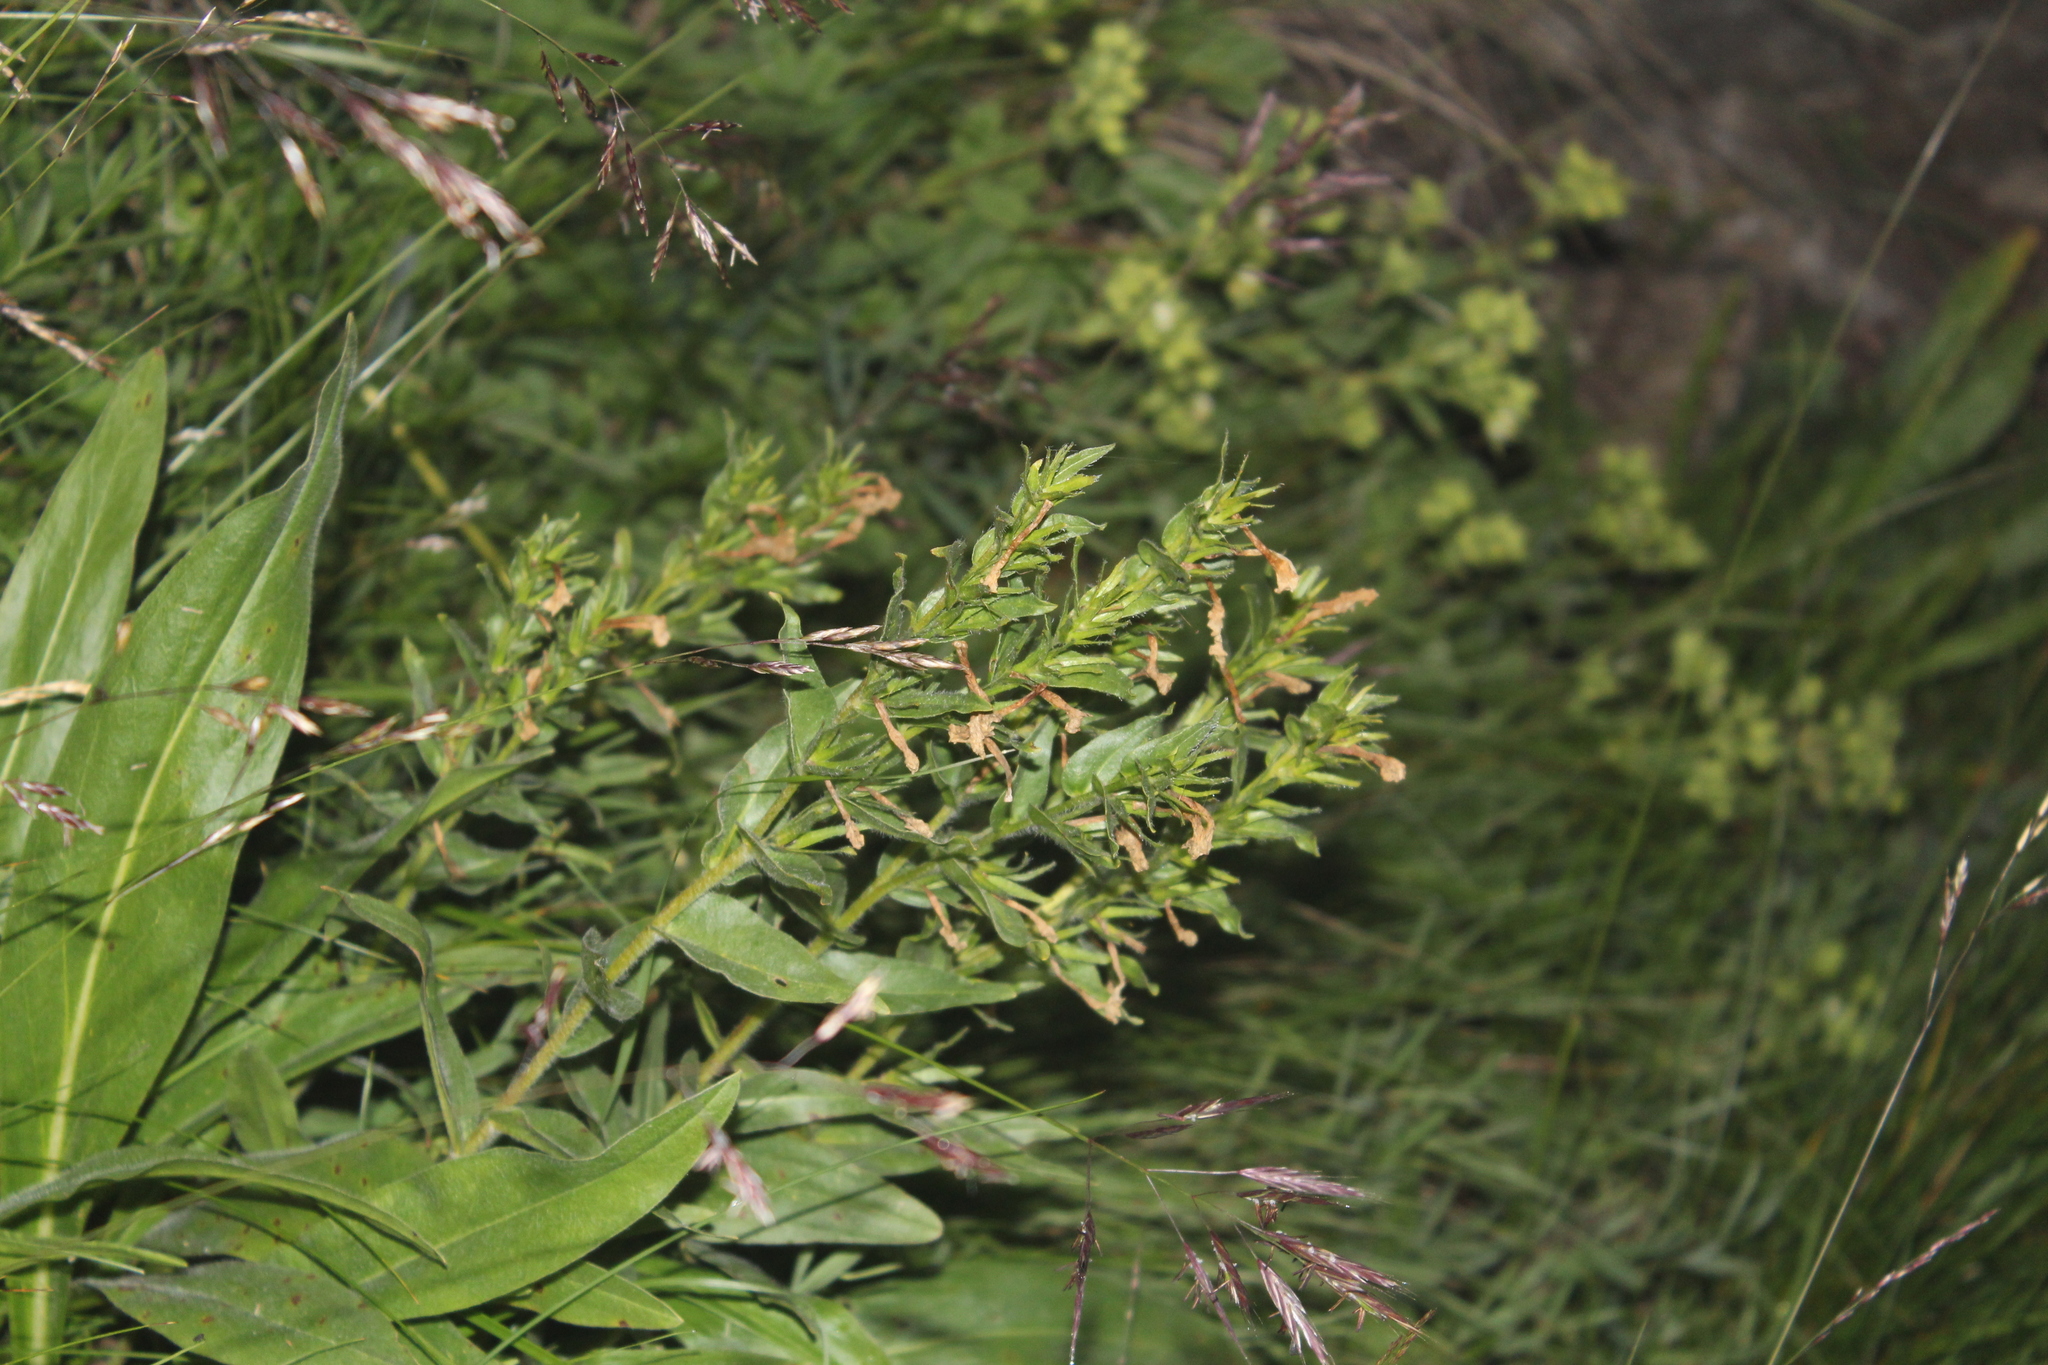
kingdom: Plantae
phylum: Tracheophyta
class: Magnoliopsida
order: Boraginales
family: Boraginaceae
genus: Huynhia
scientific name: Huynhia pulchra
